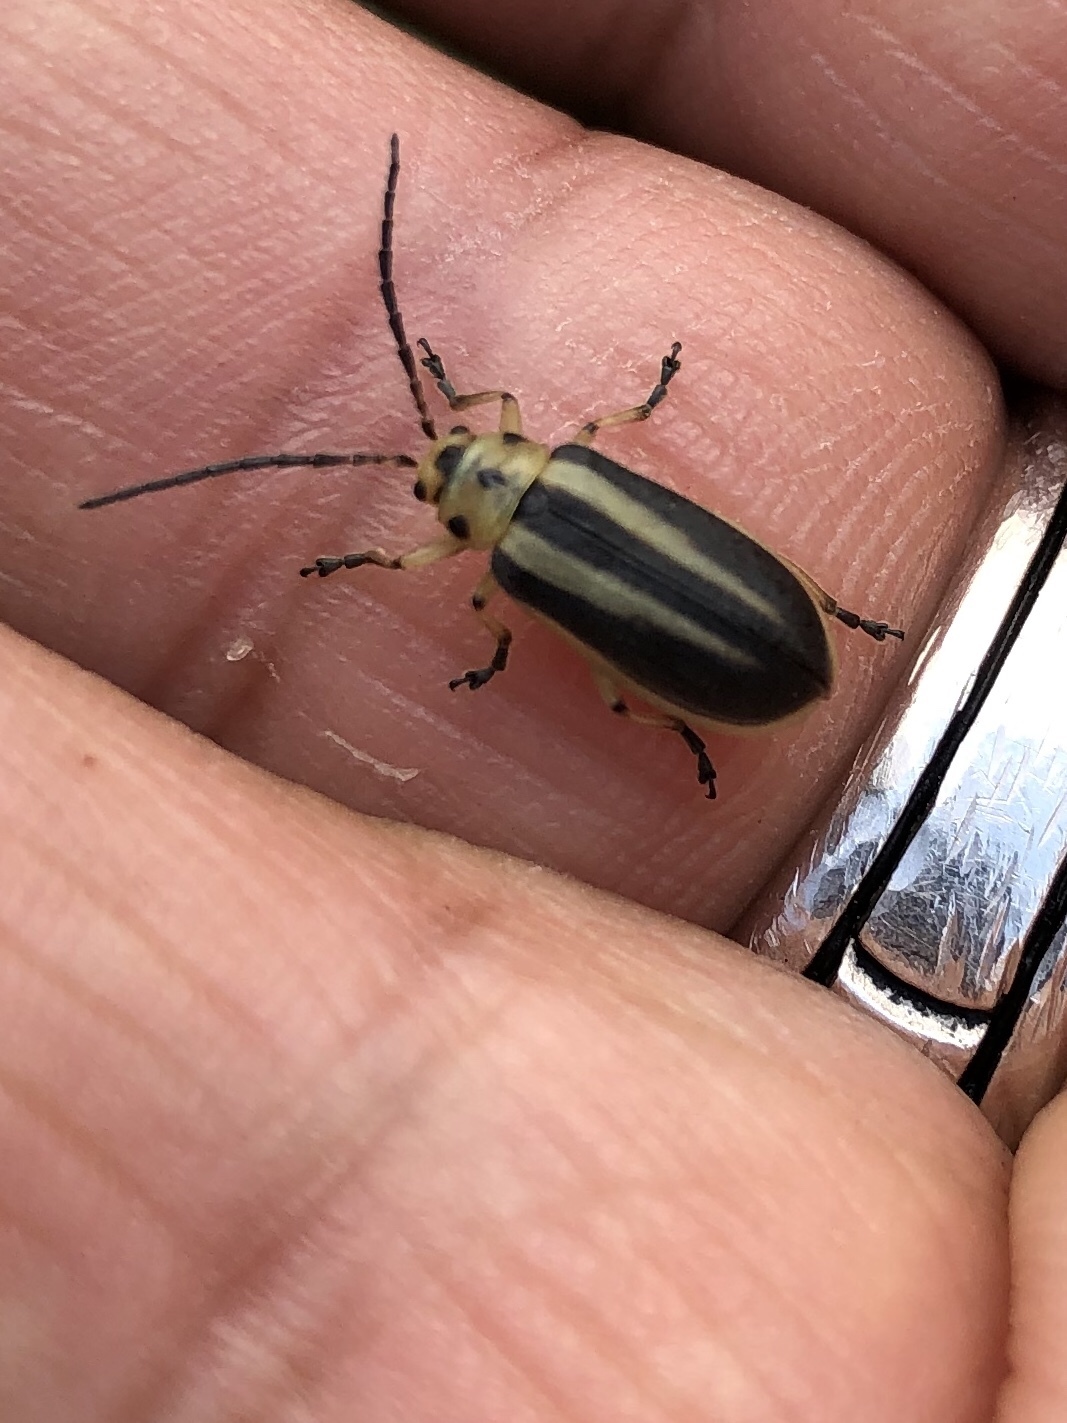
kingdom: Animalia
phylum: Arthropoda
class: Insecta
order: Coleoptera
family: Chrysomelidae
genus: Trirhabda
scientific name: Trirhabda bacharidis
